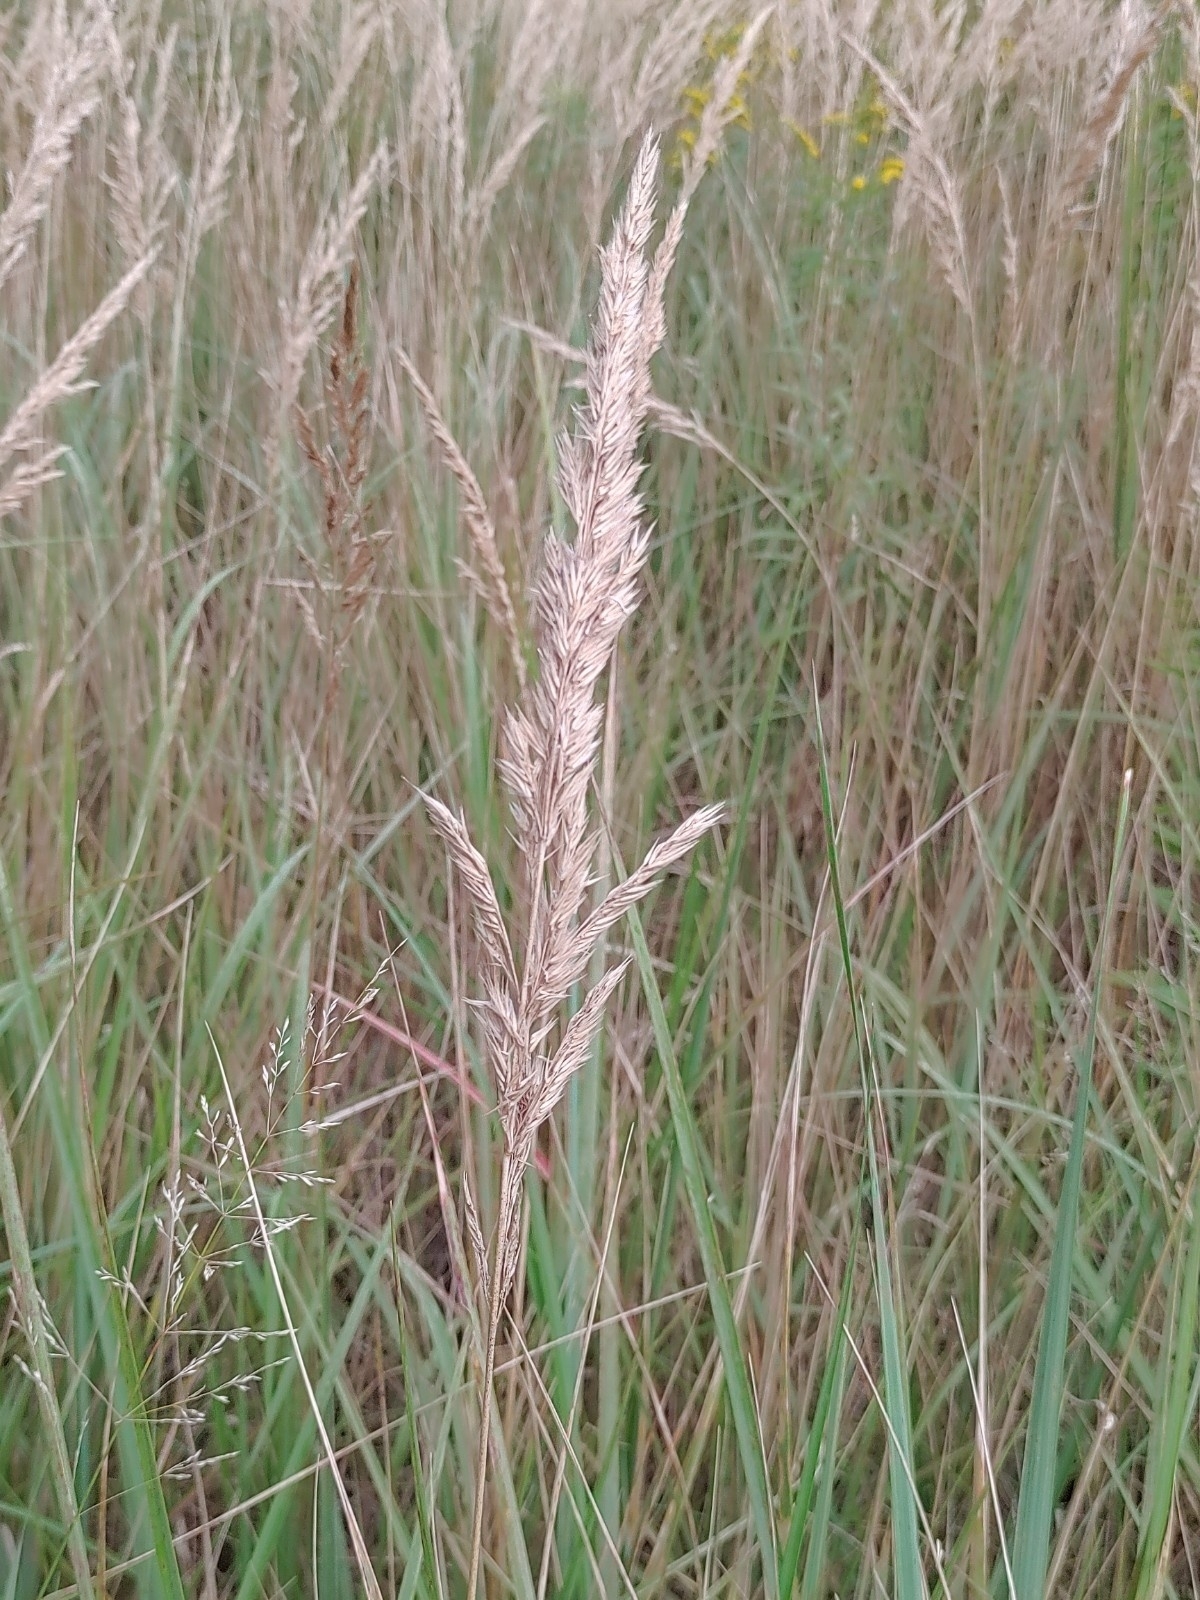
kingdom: Plantae
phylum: Tracheophyta
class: Liliopsida
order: Poales
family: Poaceae
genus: Calamagrostis
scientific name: Calamagrostis epigejos
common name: Wood small-reed
